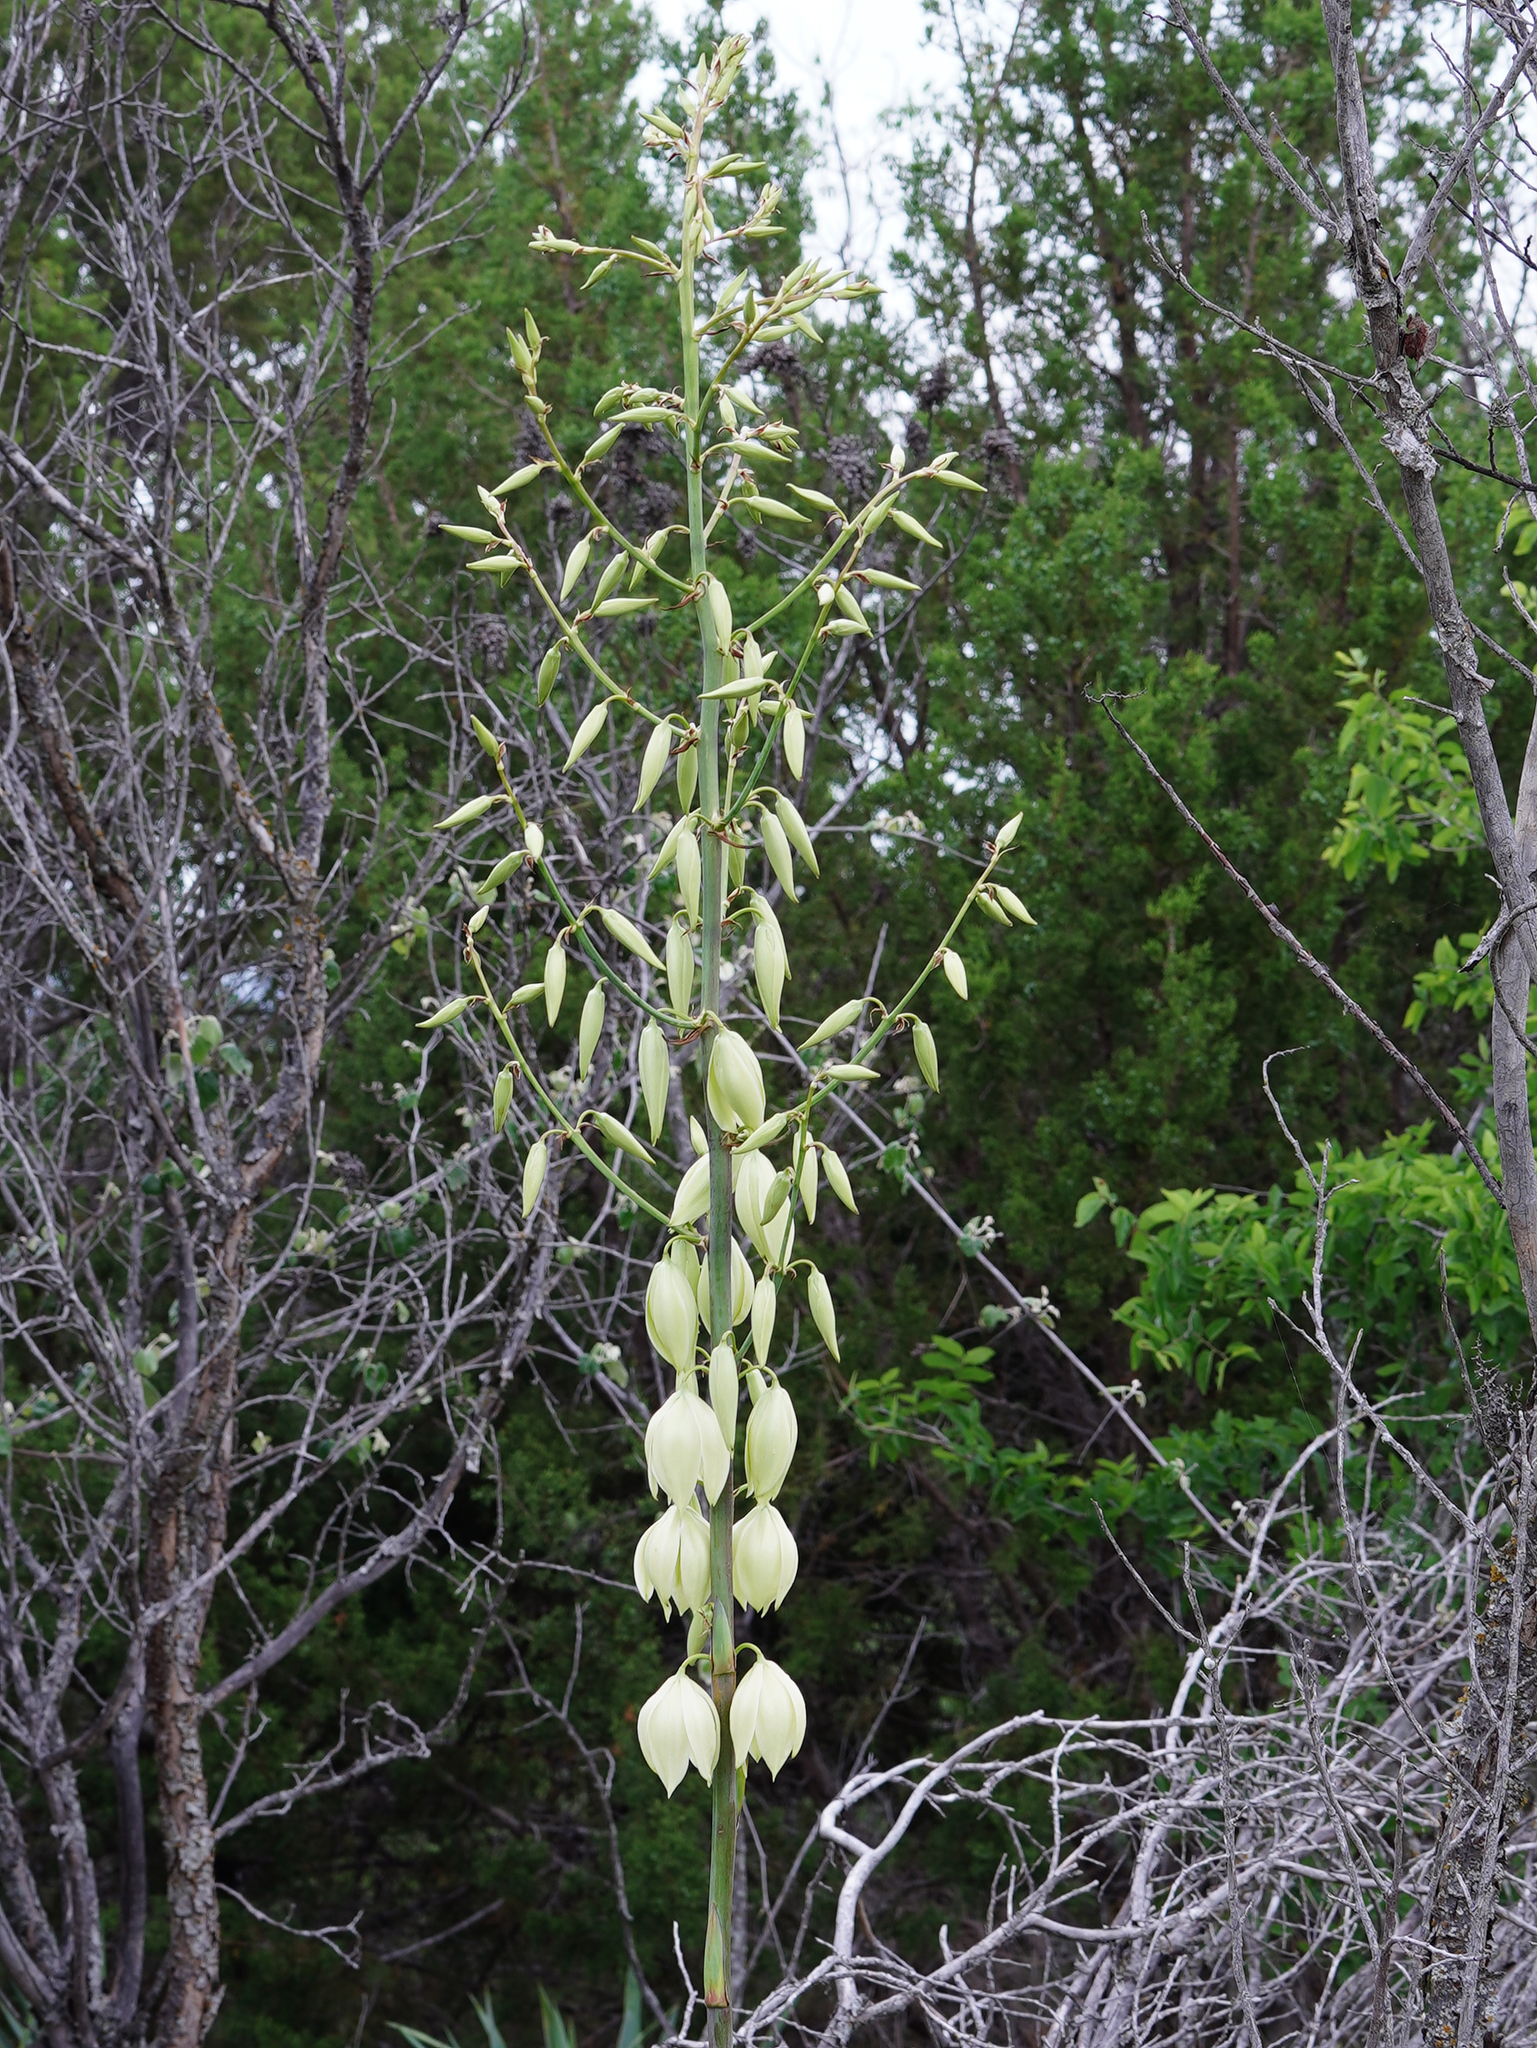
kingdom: Plantae
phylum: Tracheophyta
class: Liliopsida
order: Asparagales
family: Asparagaceae
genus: Yucca
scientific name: Yucca pallida
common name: Pale leaf yucca
